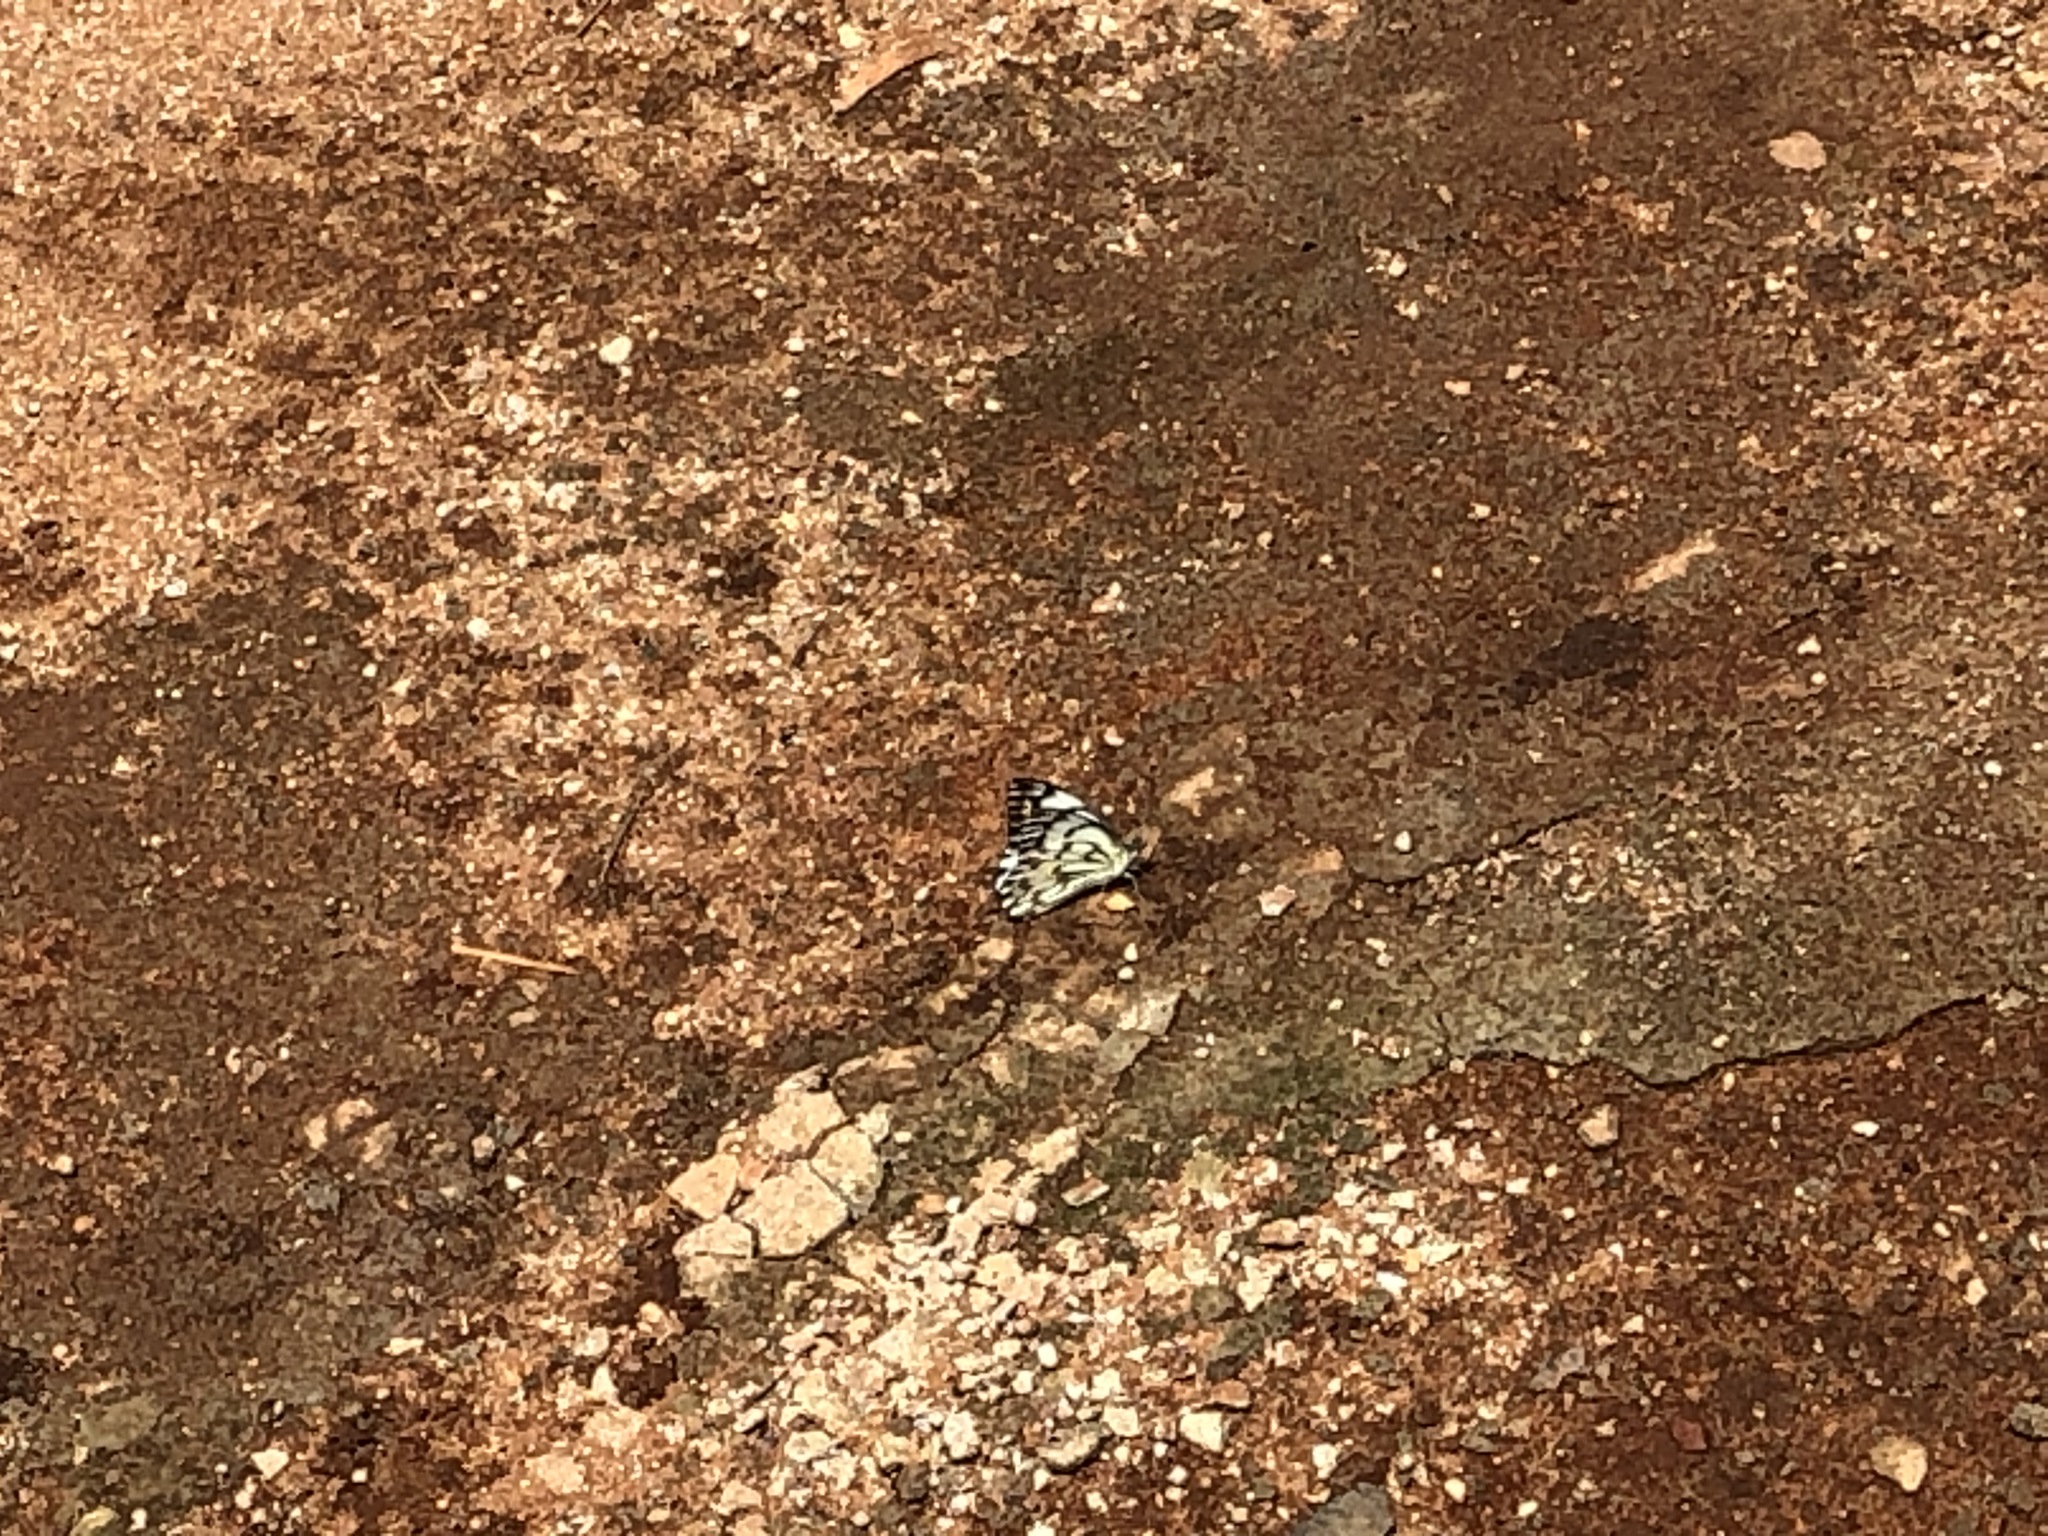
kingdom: Animalia
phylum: Arthropoda
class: Insecta
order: Lepidoptera
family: Nymphalidae
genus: Hypolimnas
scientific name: Hypolimnas misippus
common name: False plain tiger
